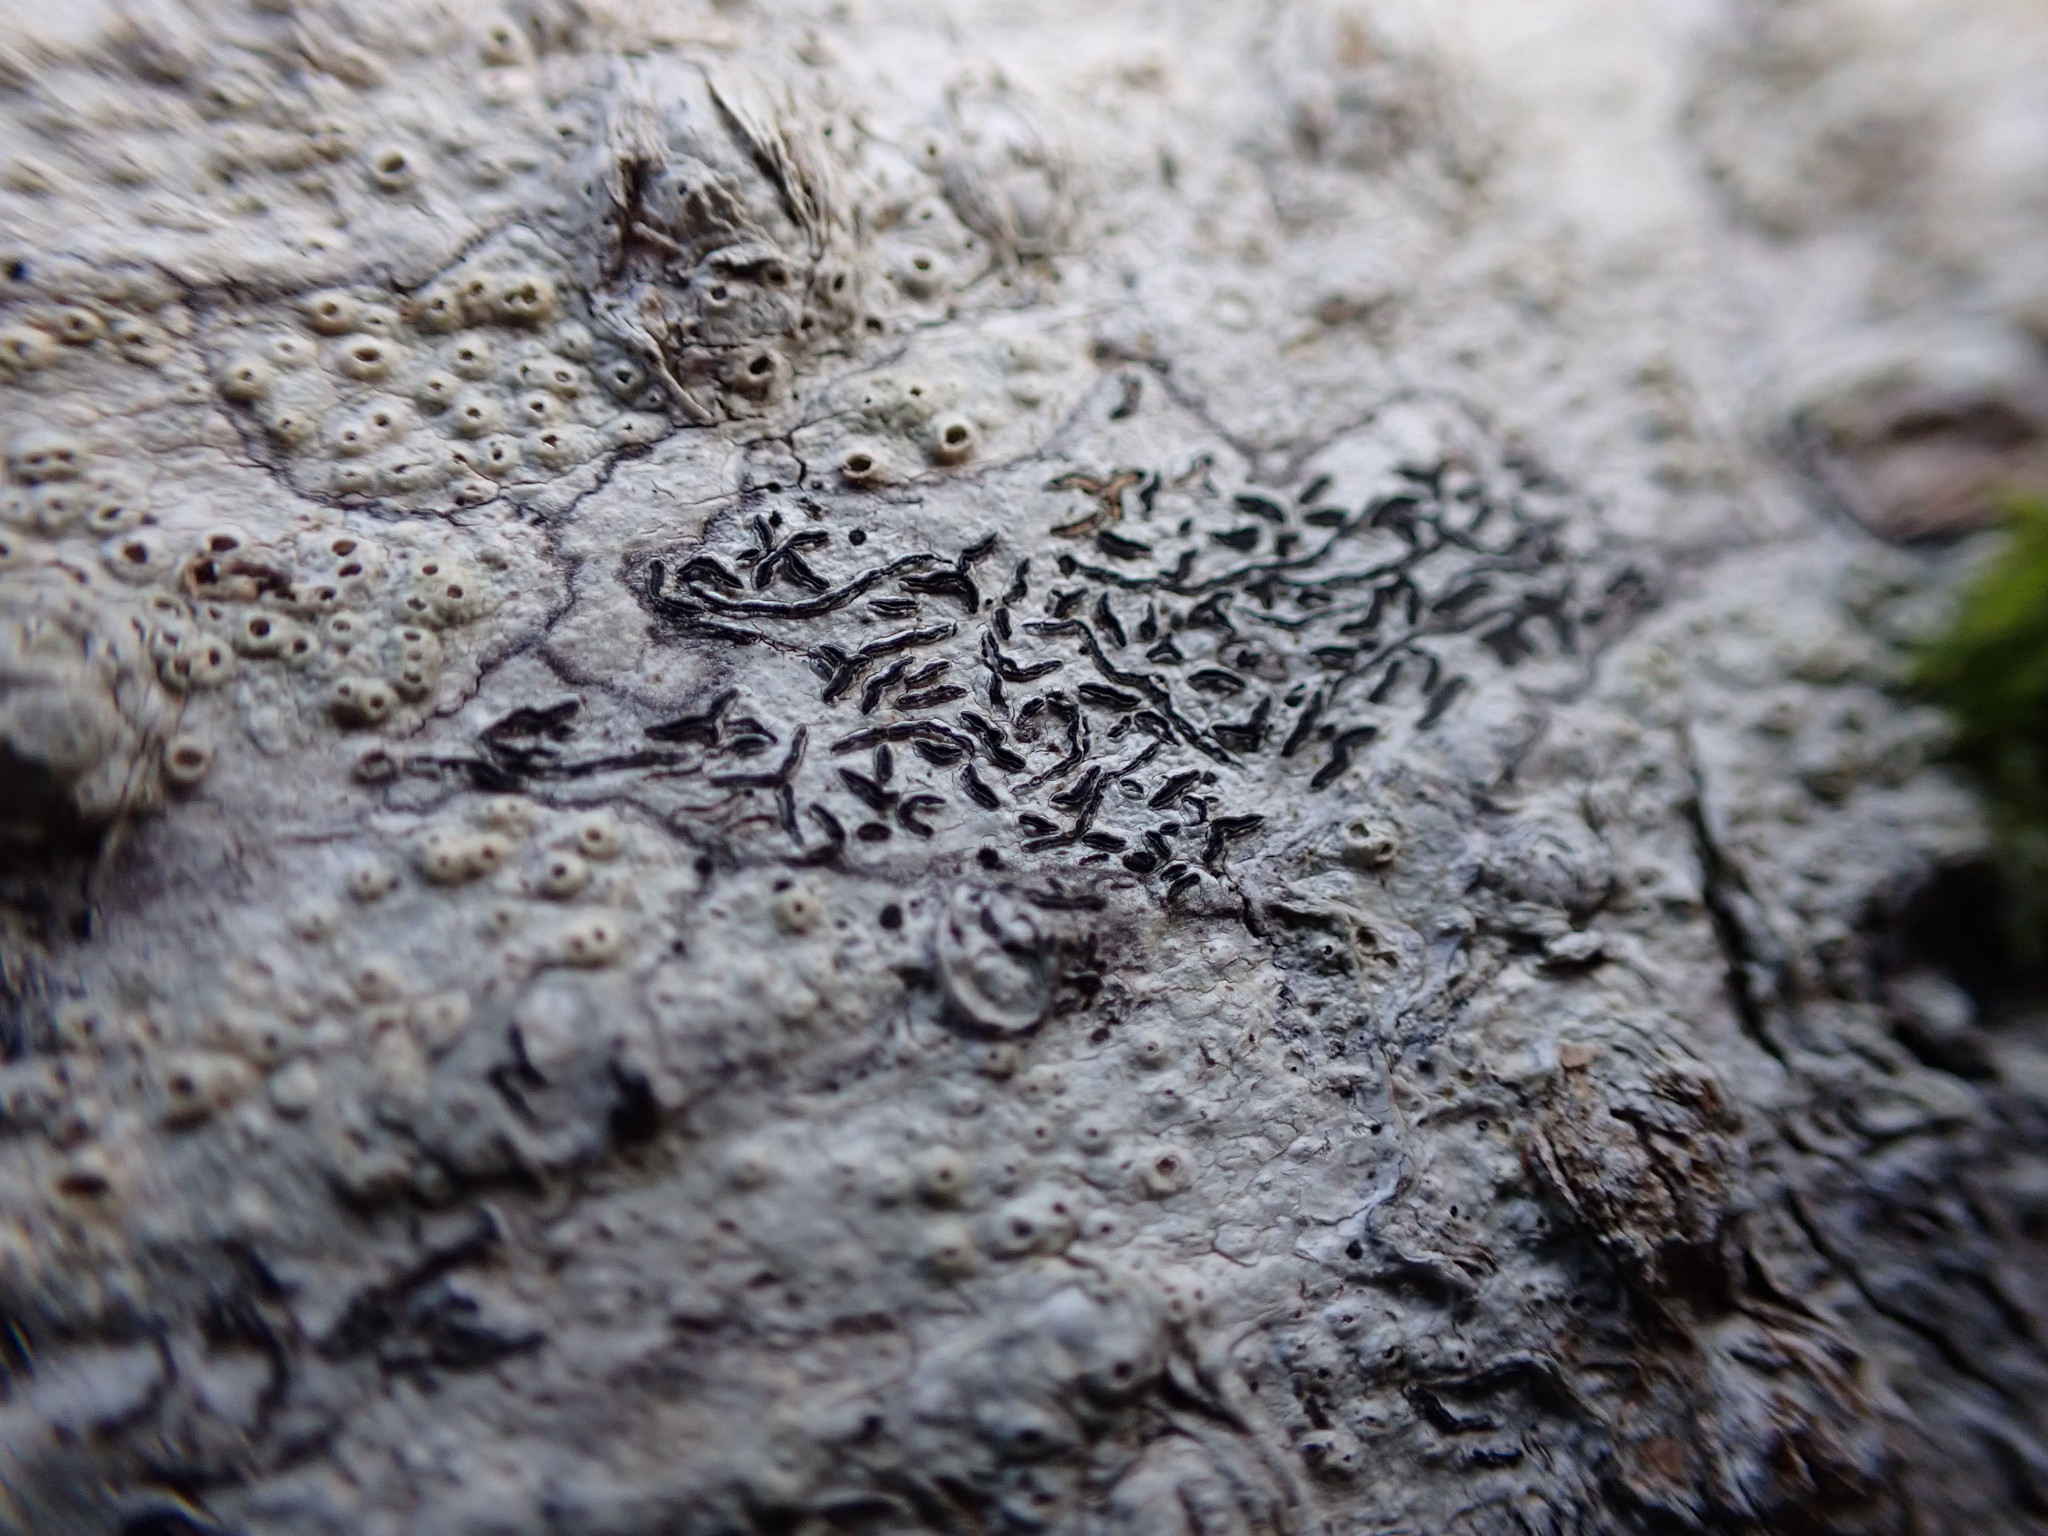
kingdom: Fungi
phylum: Ascomycota
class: Lecanoromycetes
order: Ostropales
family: Graphidaceae
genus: Graphis
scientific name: Graphis scripta
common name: Script lichen
